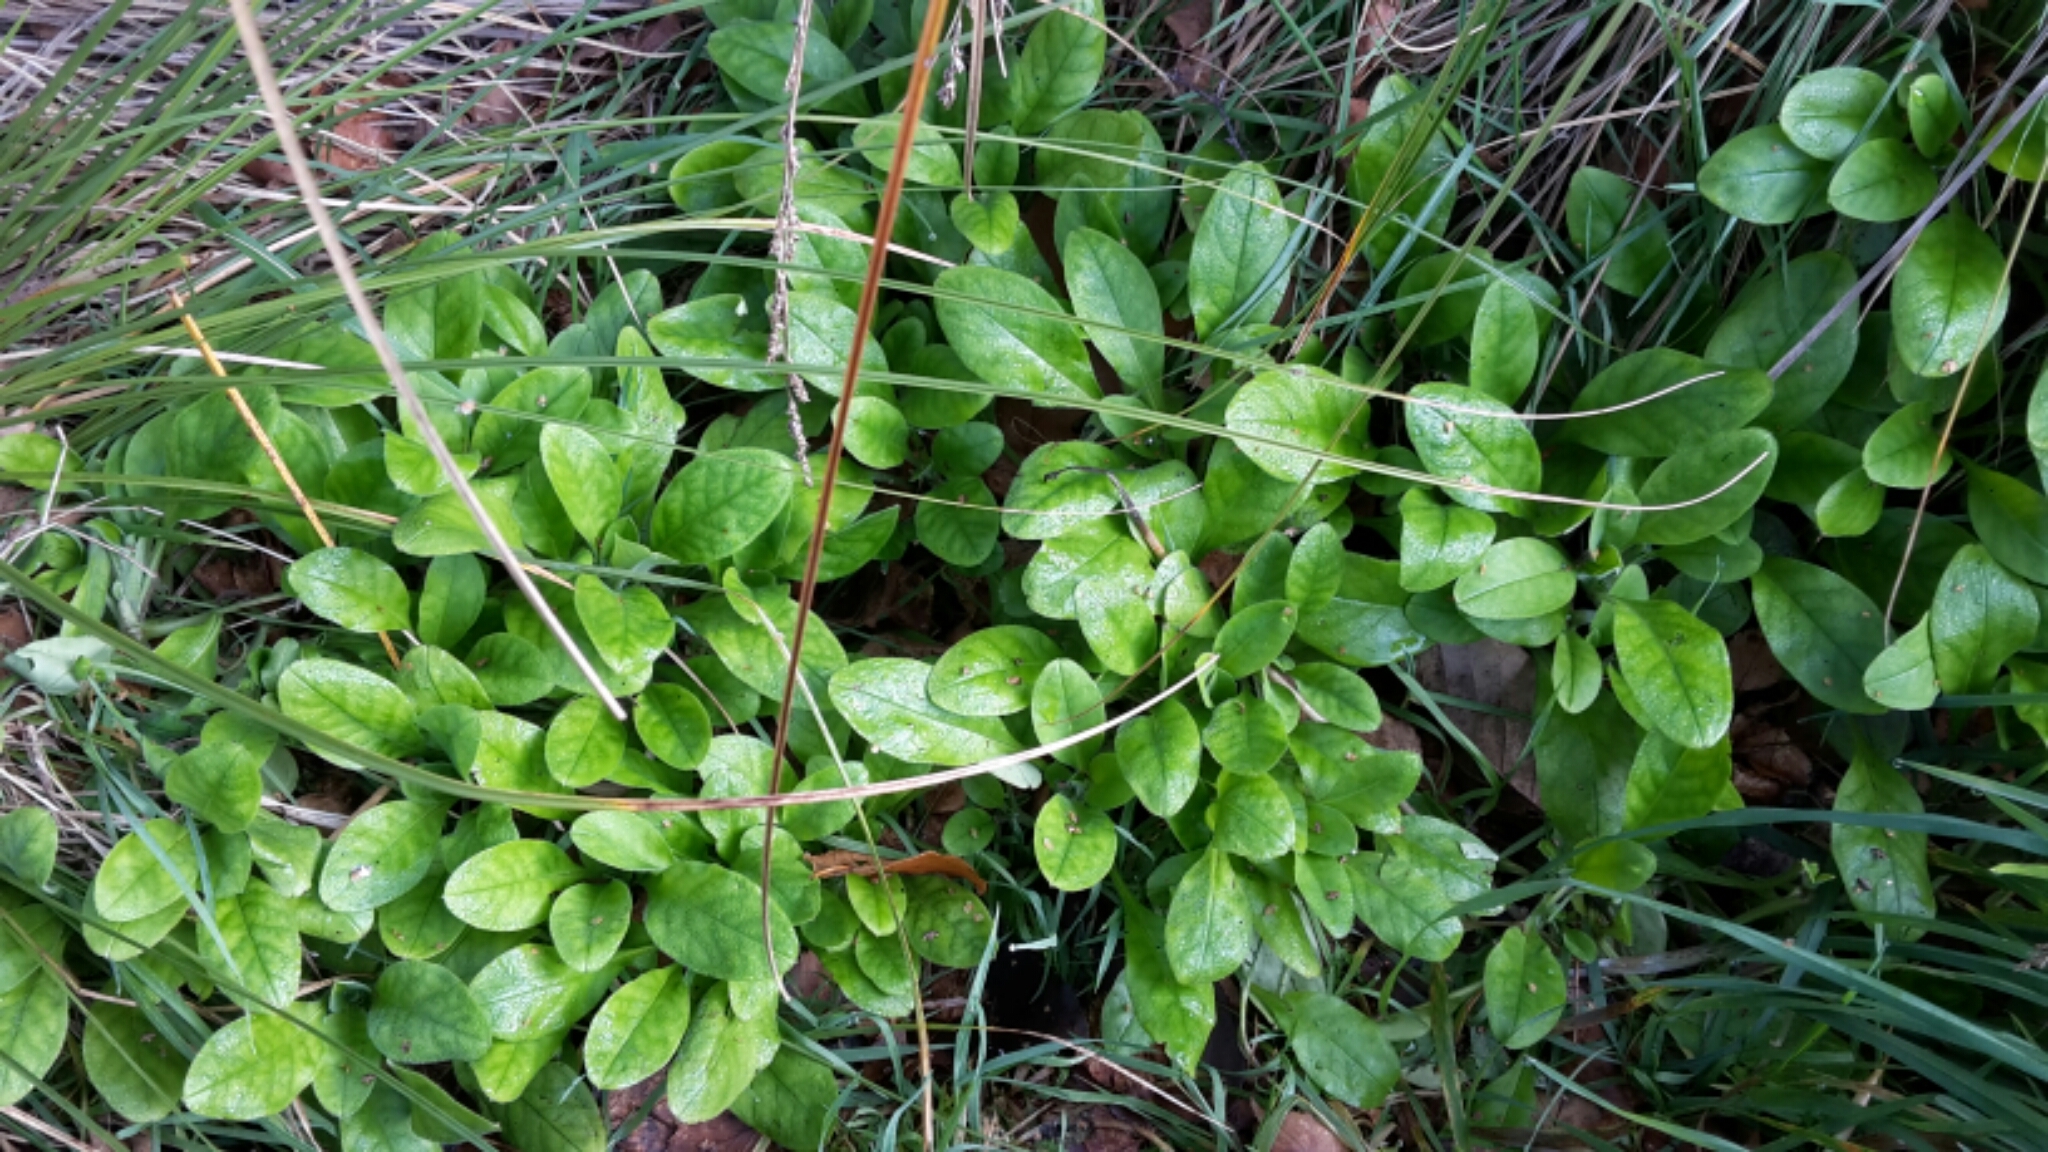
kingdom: Plantae
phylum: Tracheophyta
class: Magnoliopsida
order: Boraginales
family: Boraginaceae
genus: Myosotis
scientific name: Myosotis sylvatica
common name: Wood forget-me-not
